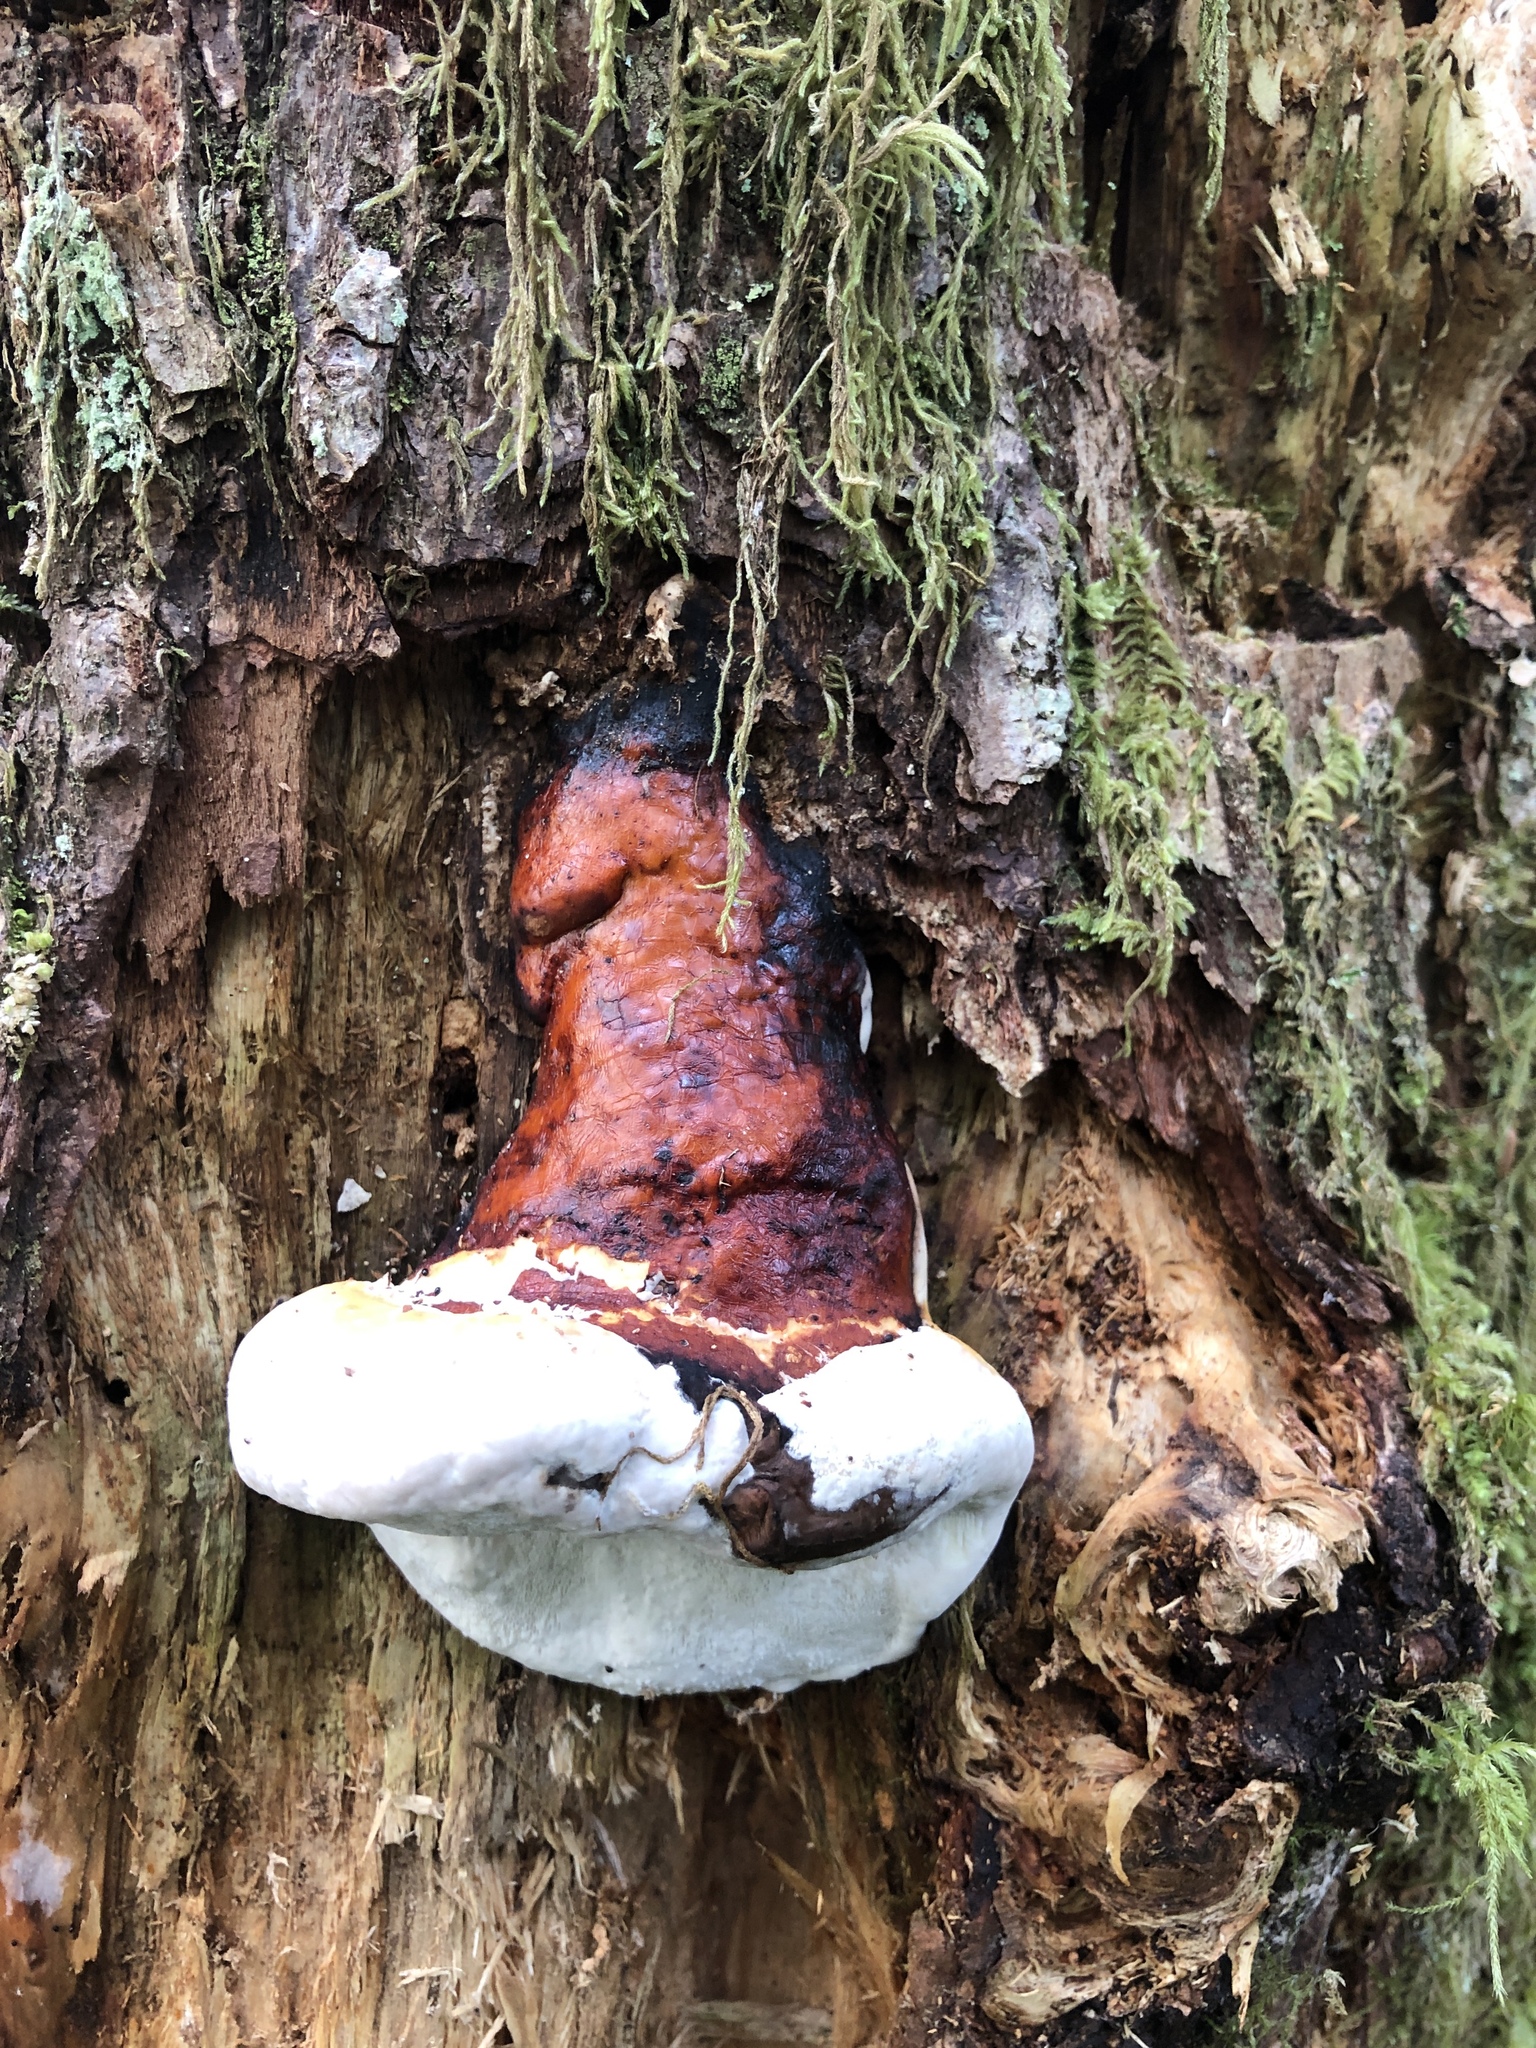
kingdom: Fungi
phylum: Basidiomycota
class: Agaricomycetes
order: Polyporales
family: Fomitopsidaceae
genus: Fomitopsis
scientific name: Fomitopsis mounceae
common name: Northern red belt
